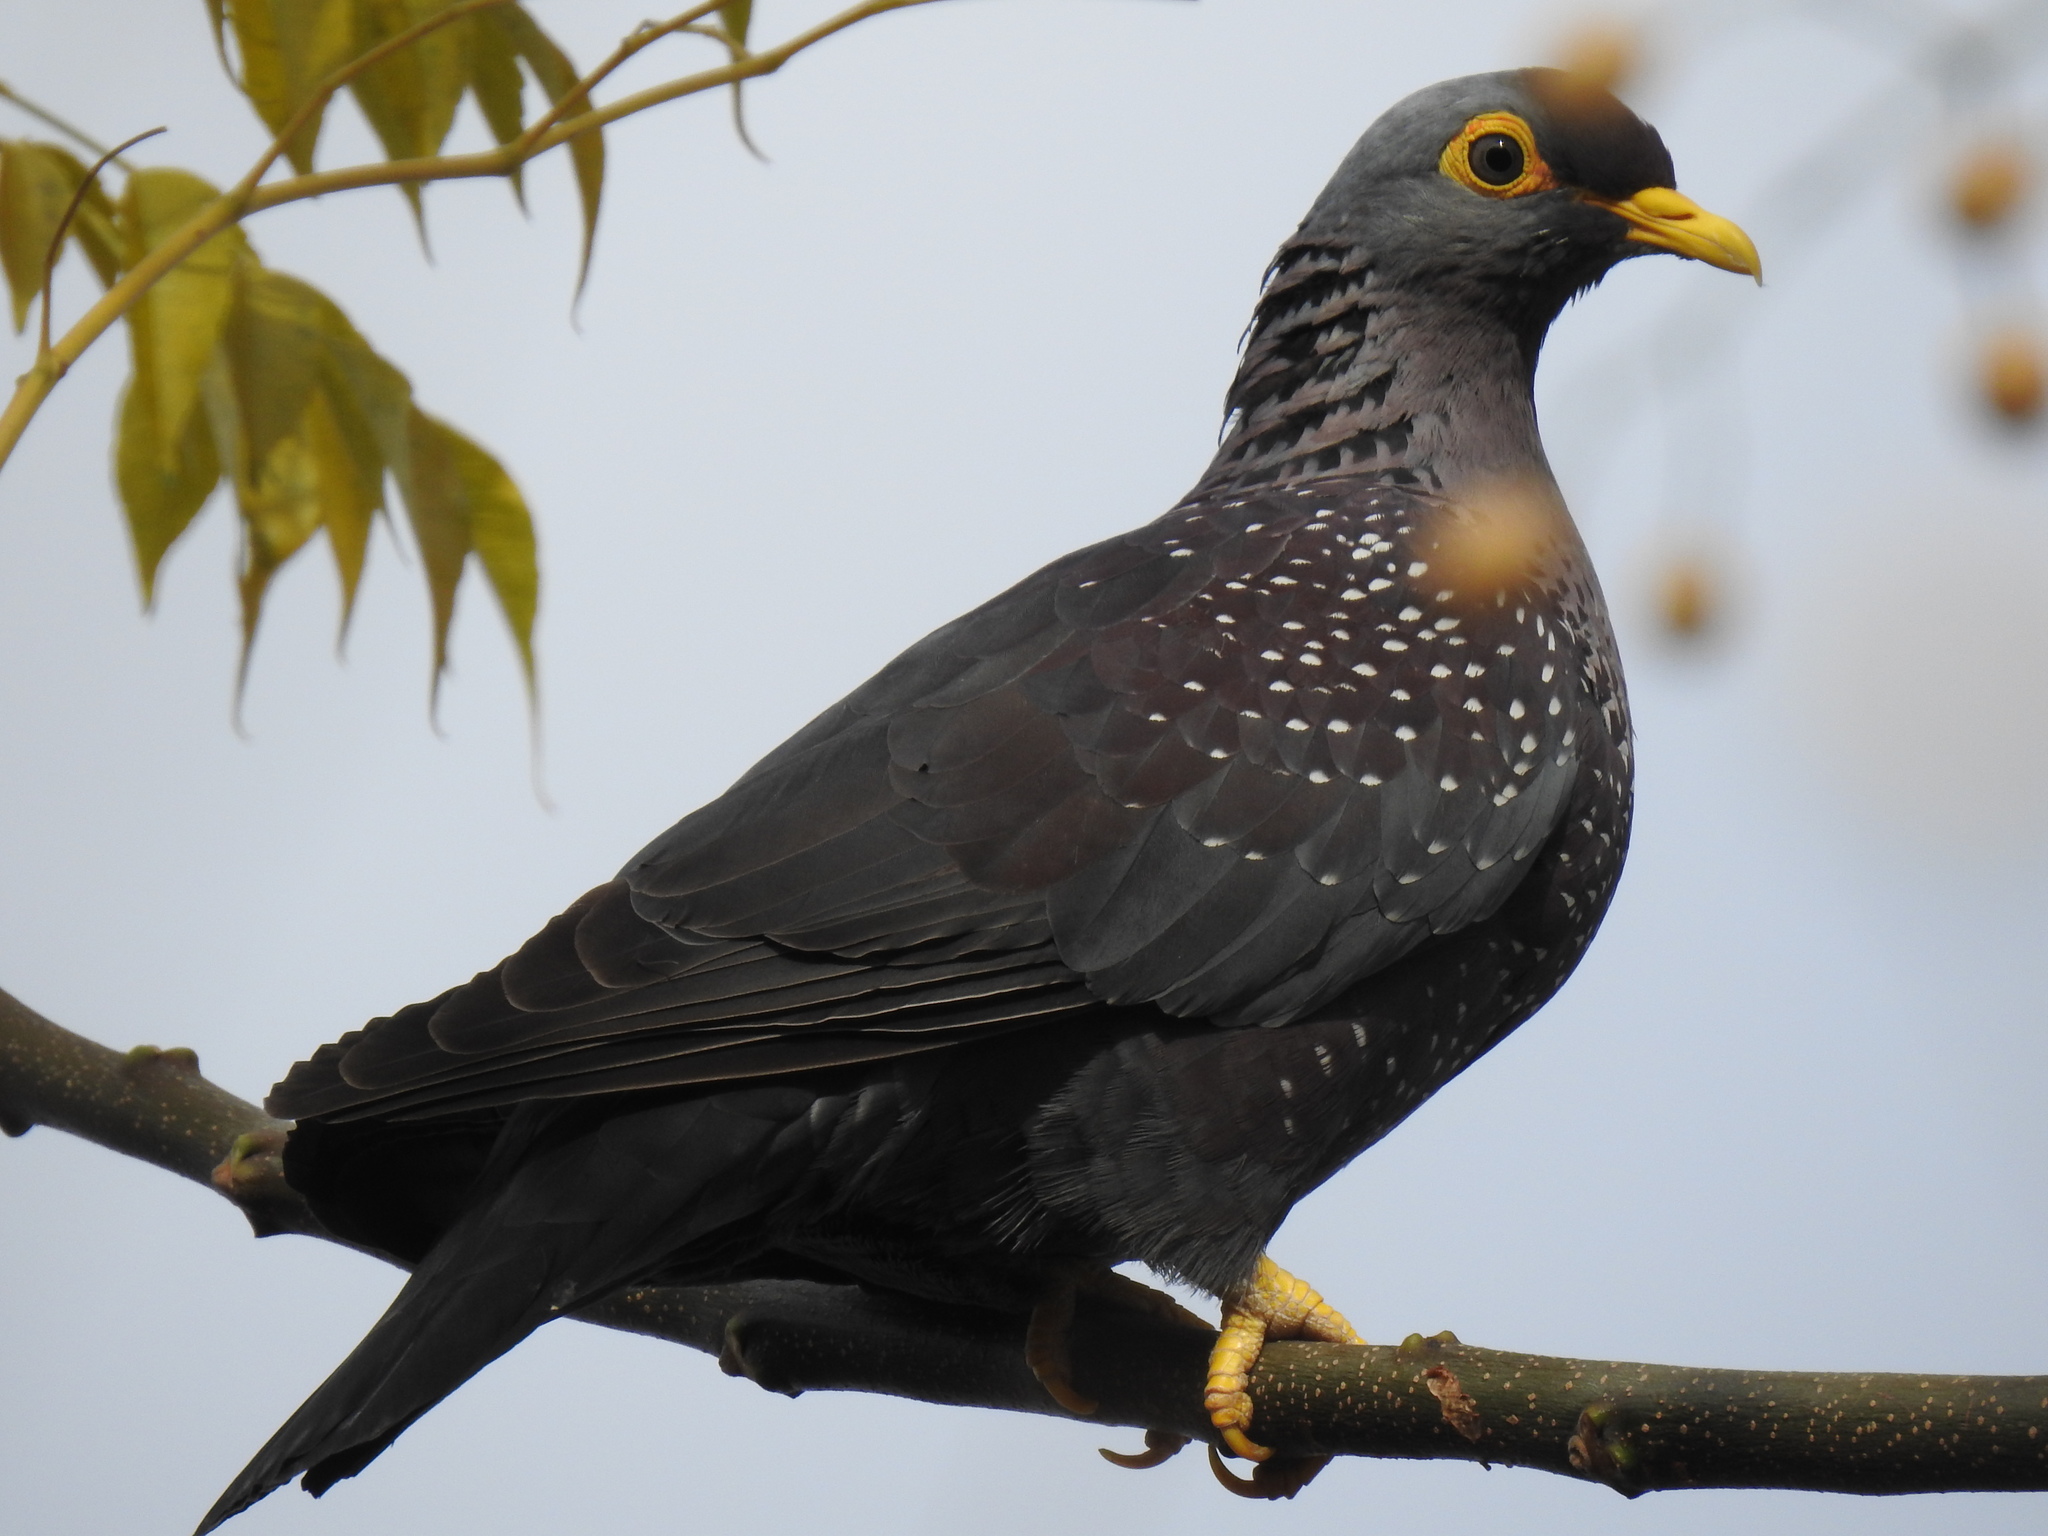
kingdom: Animalia
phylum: Chordata
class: Aves
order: Columbiformes
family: Columbidae
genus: Columba
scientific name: Columba arquatrix
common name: African olive pigeon
